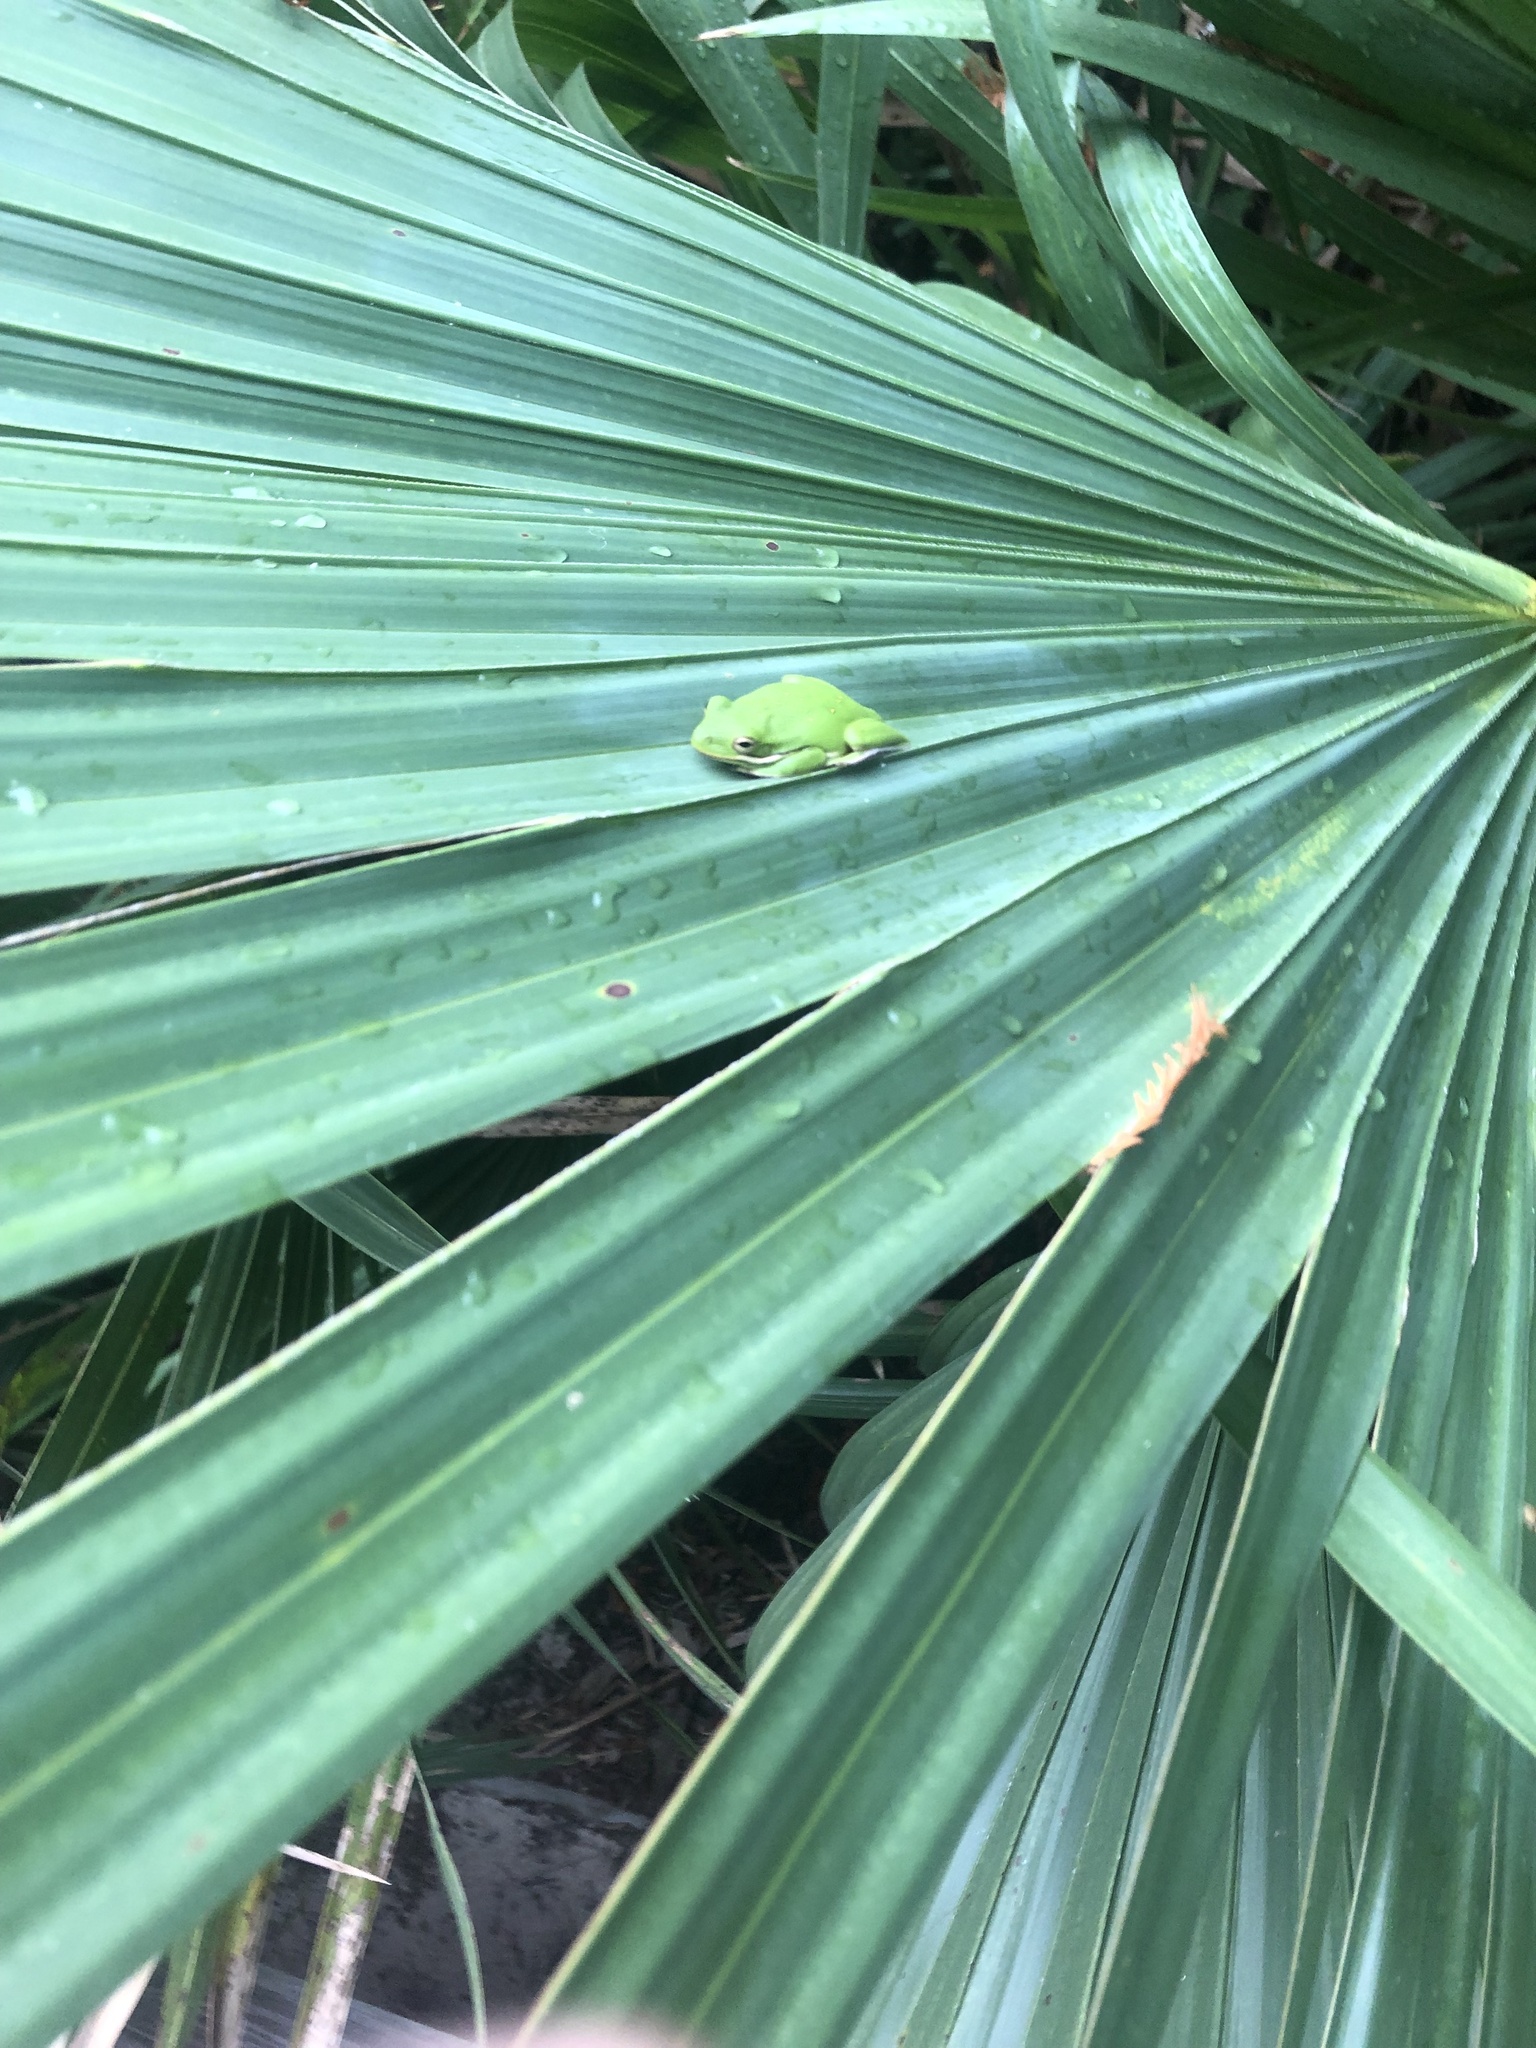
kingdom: Animalia
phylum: Chordata
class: Amphibia
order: Anura
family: Hylidae
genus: Dryophytes
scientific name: Dryophytes cinereus
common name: Green treefrog
